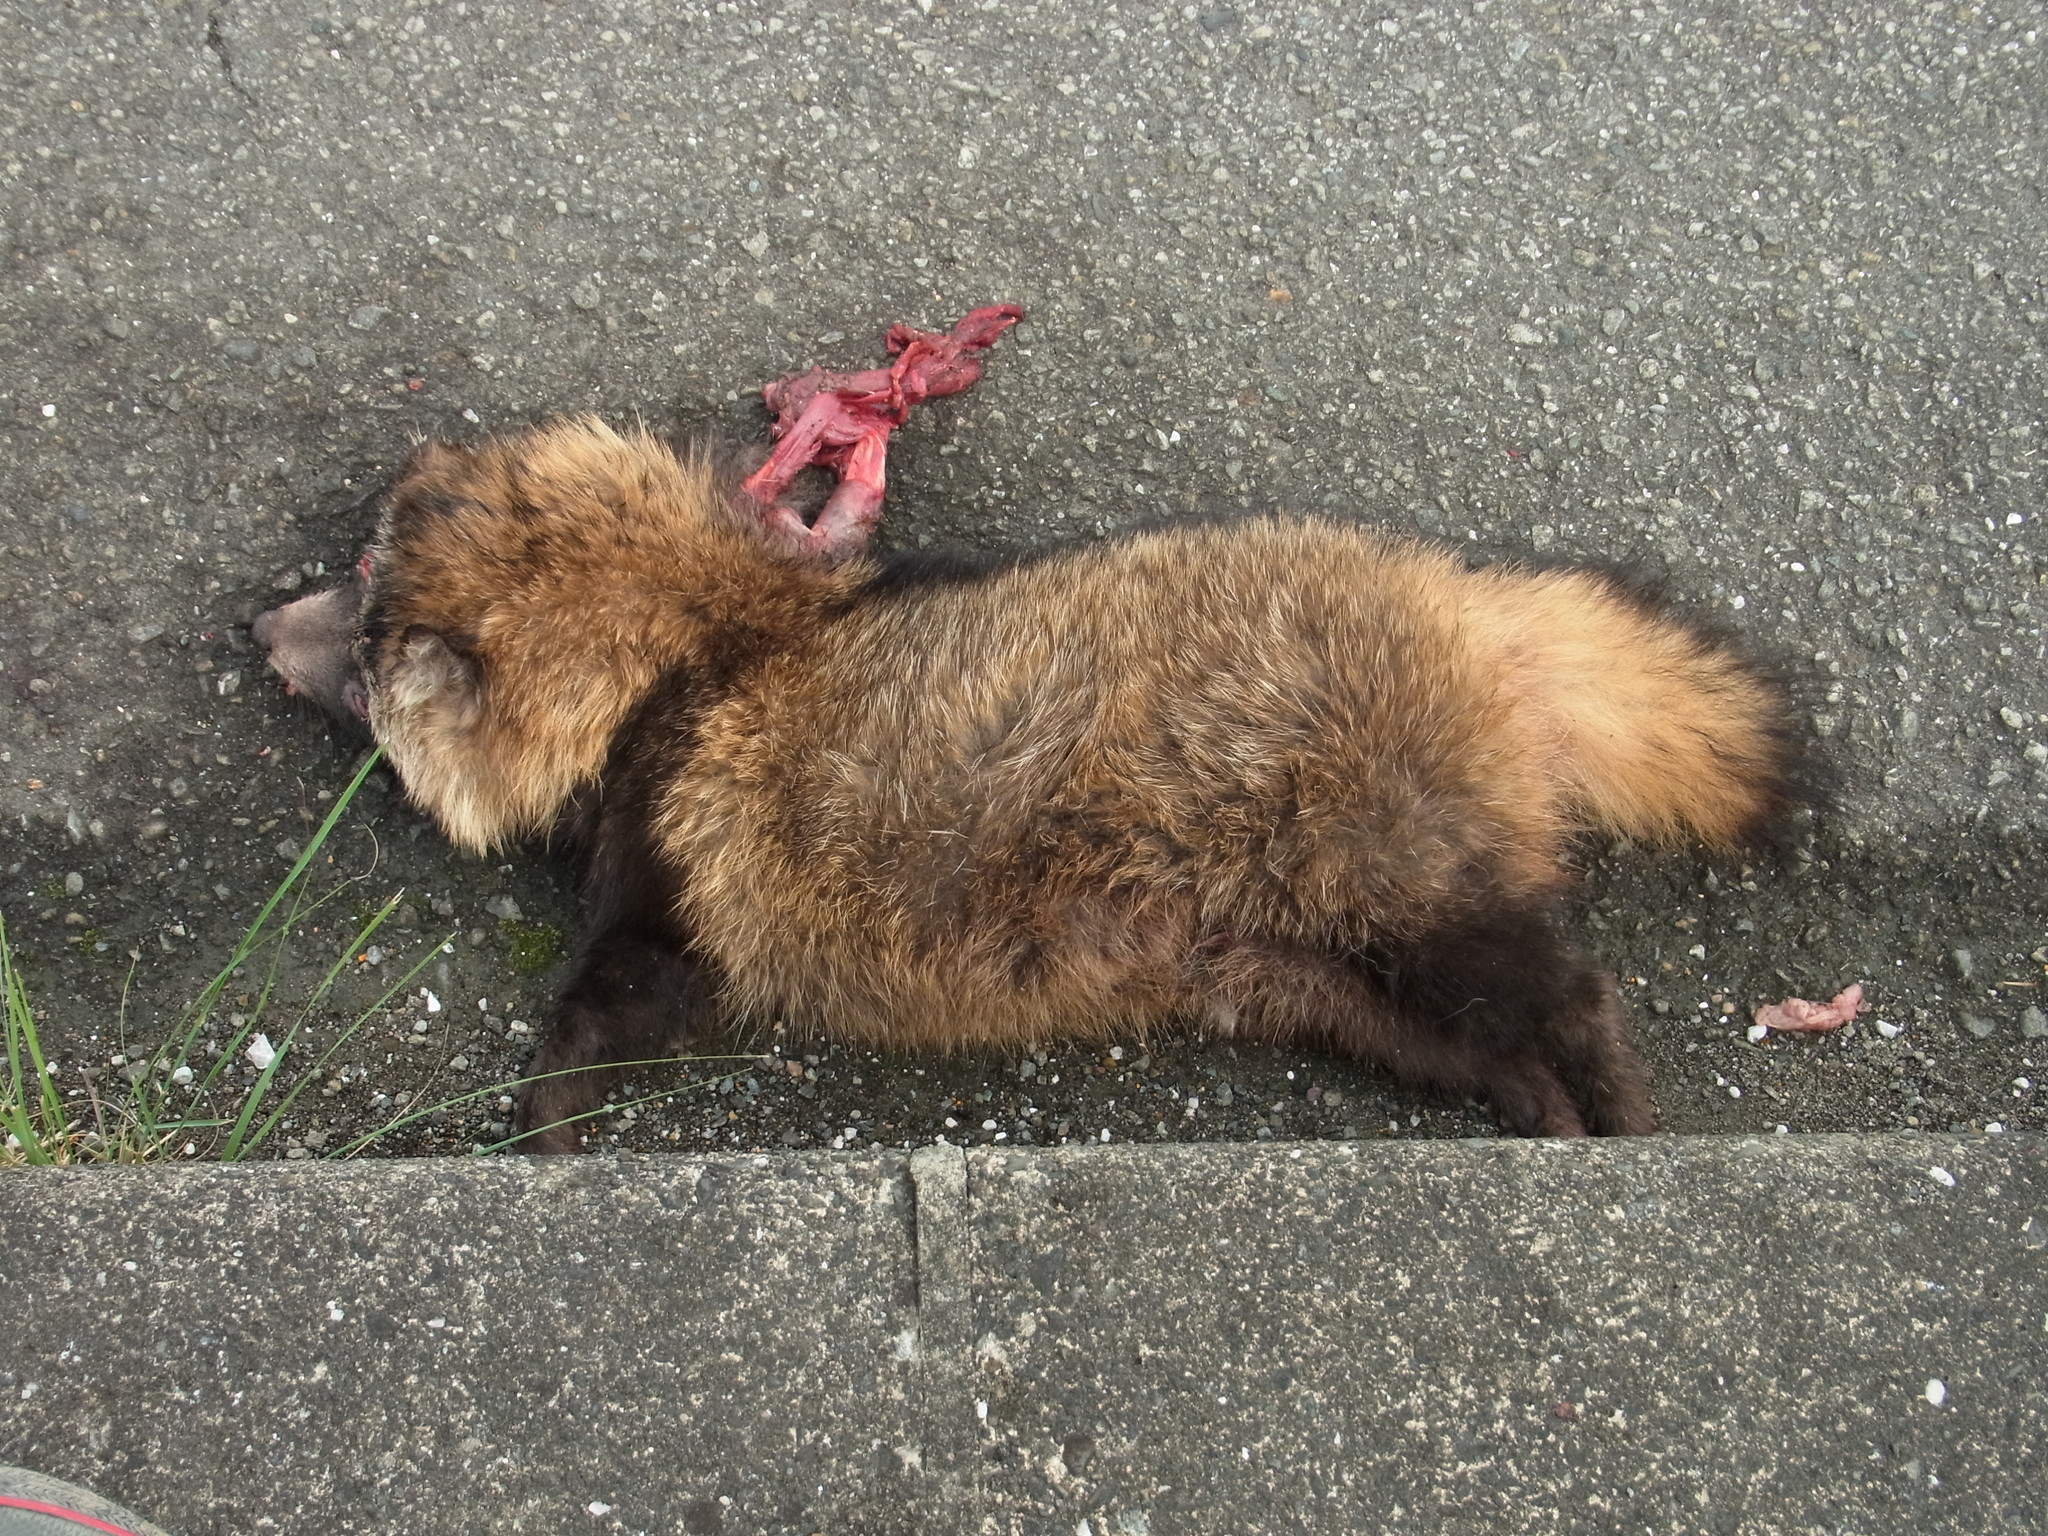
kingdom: Animalia
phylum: Chordata
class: Mammalia
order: Carnivora
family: Canidae
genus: Nyctereutes
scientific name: Nyctereutes
